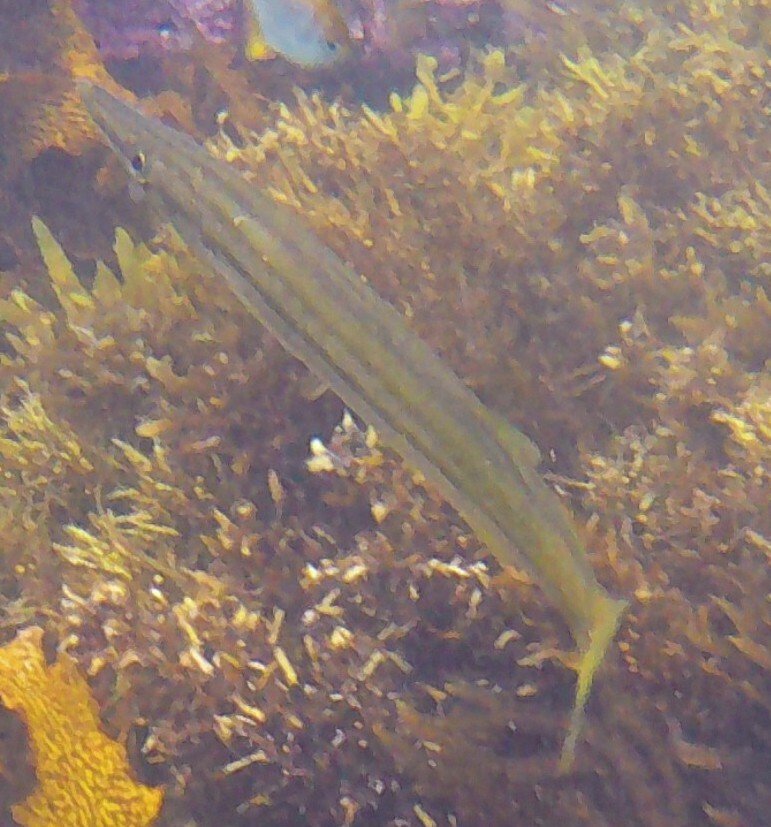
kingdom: Animalia
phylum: Chordata
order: Perciformes
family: Sphyraenidae
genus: Sphyraena
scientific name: Sphyraena obtusata
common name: Obtuse barracuda
